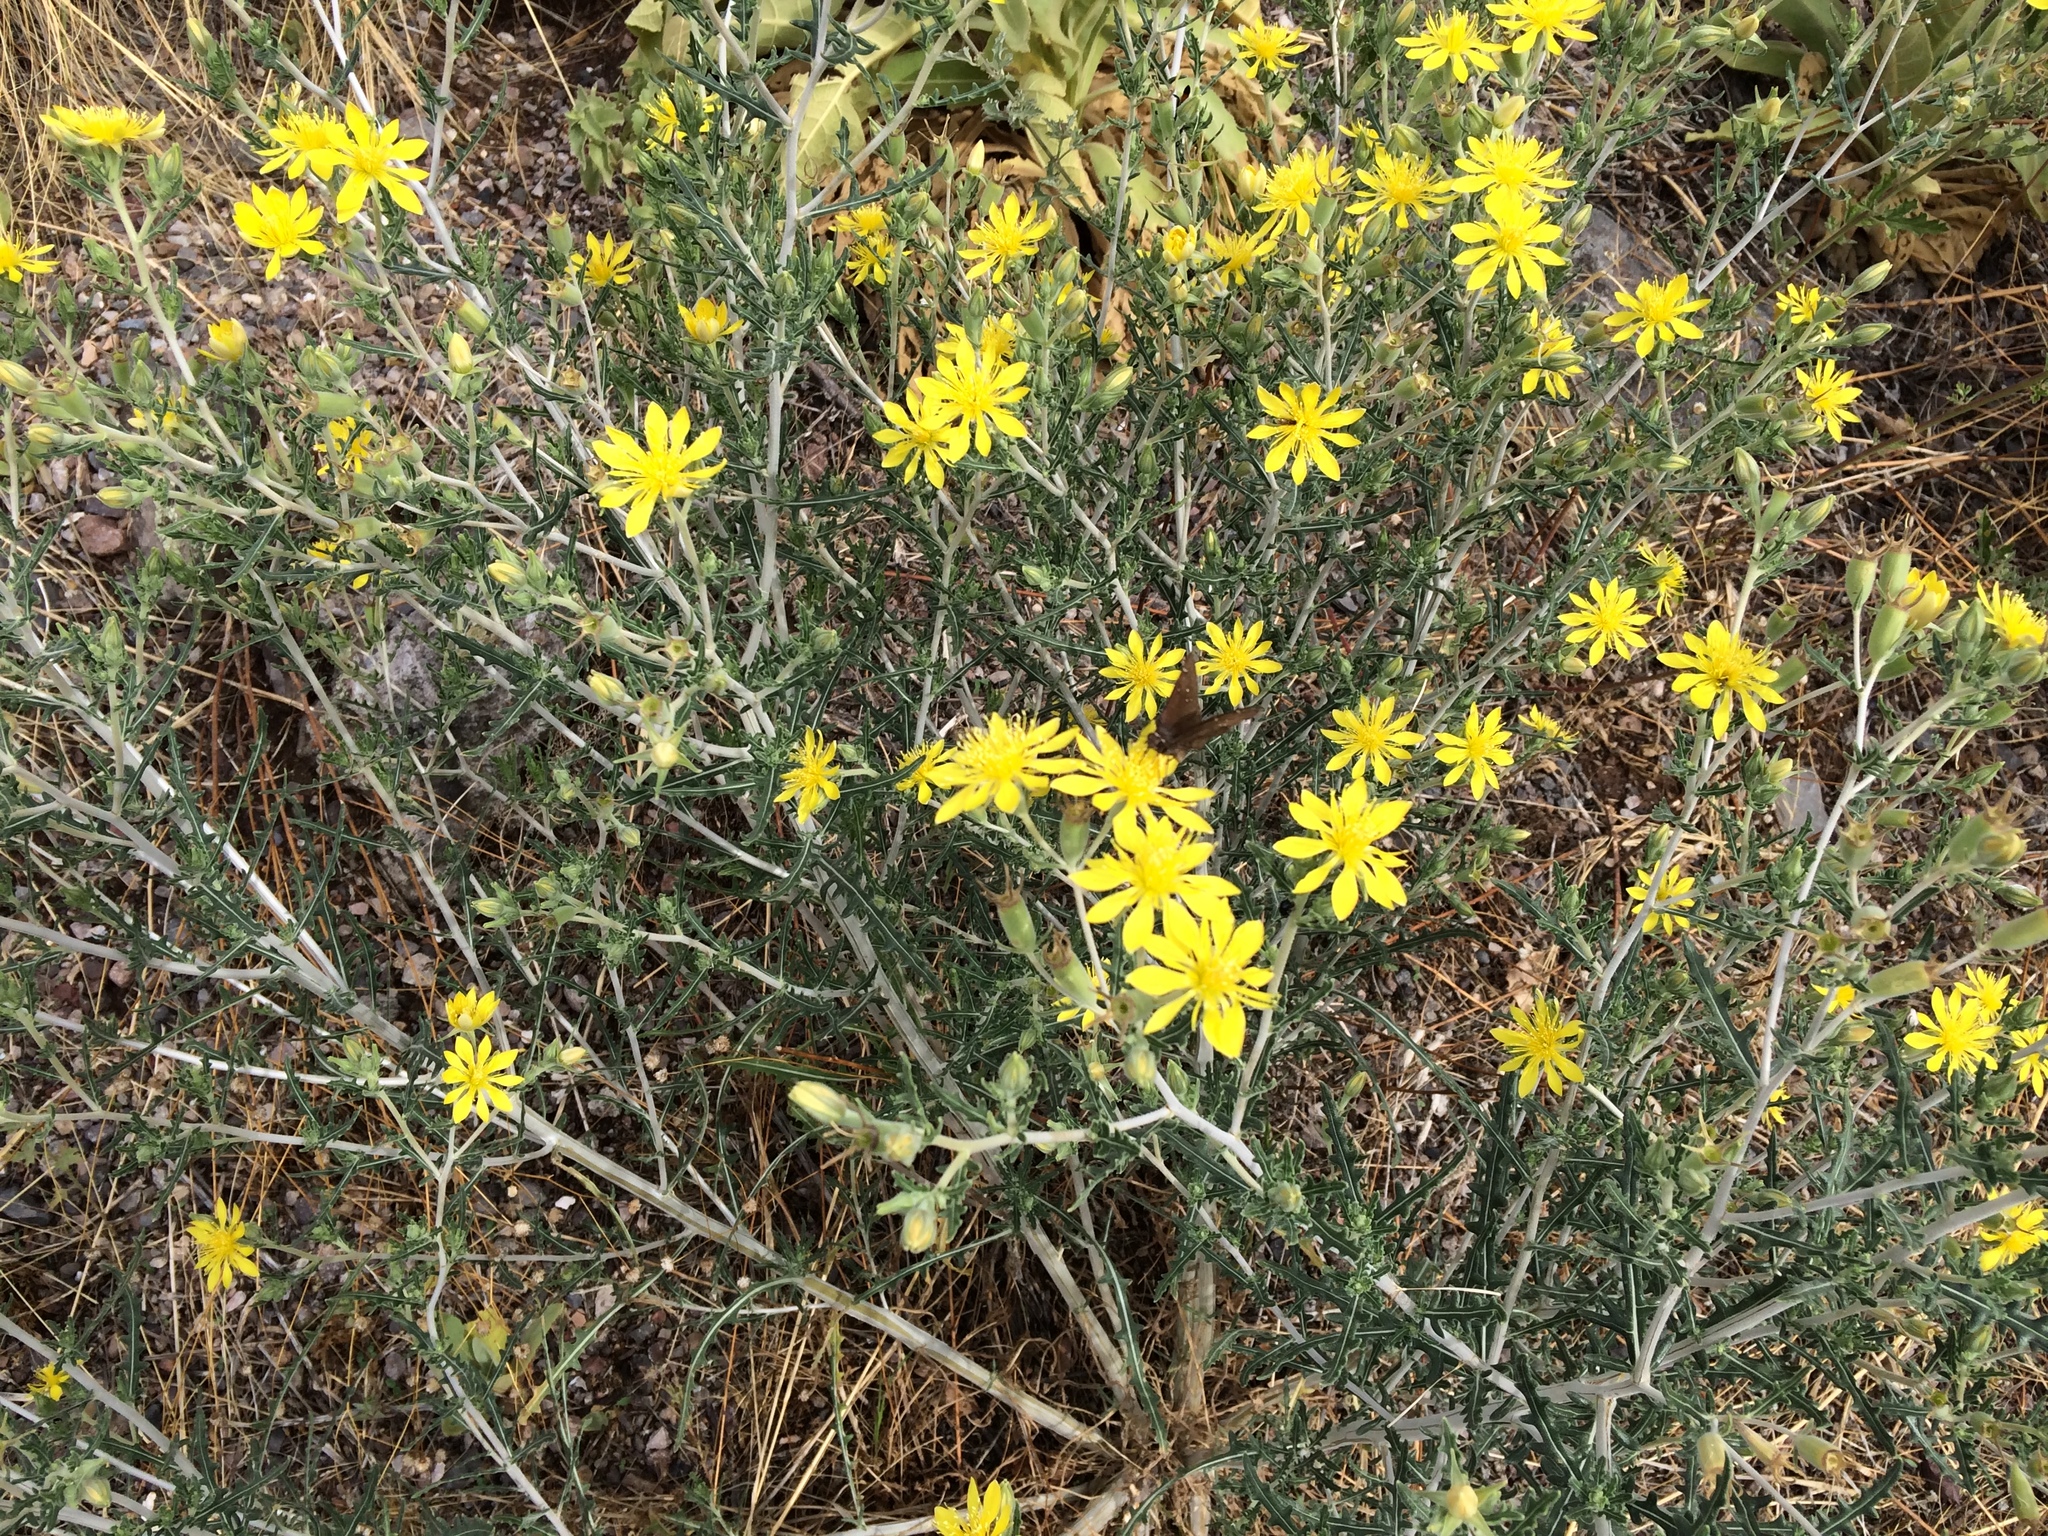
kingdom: Plantae
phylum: Tracheophyta
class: Magnoliopsida
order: Cornales
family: Loasaceae
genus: Mentzelia
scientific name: Mentzelia longiloba
